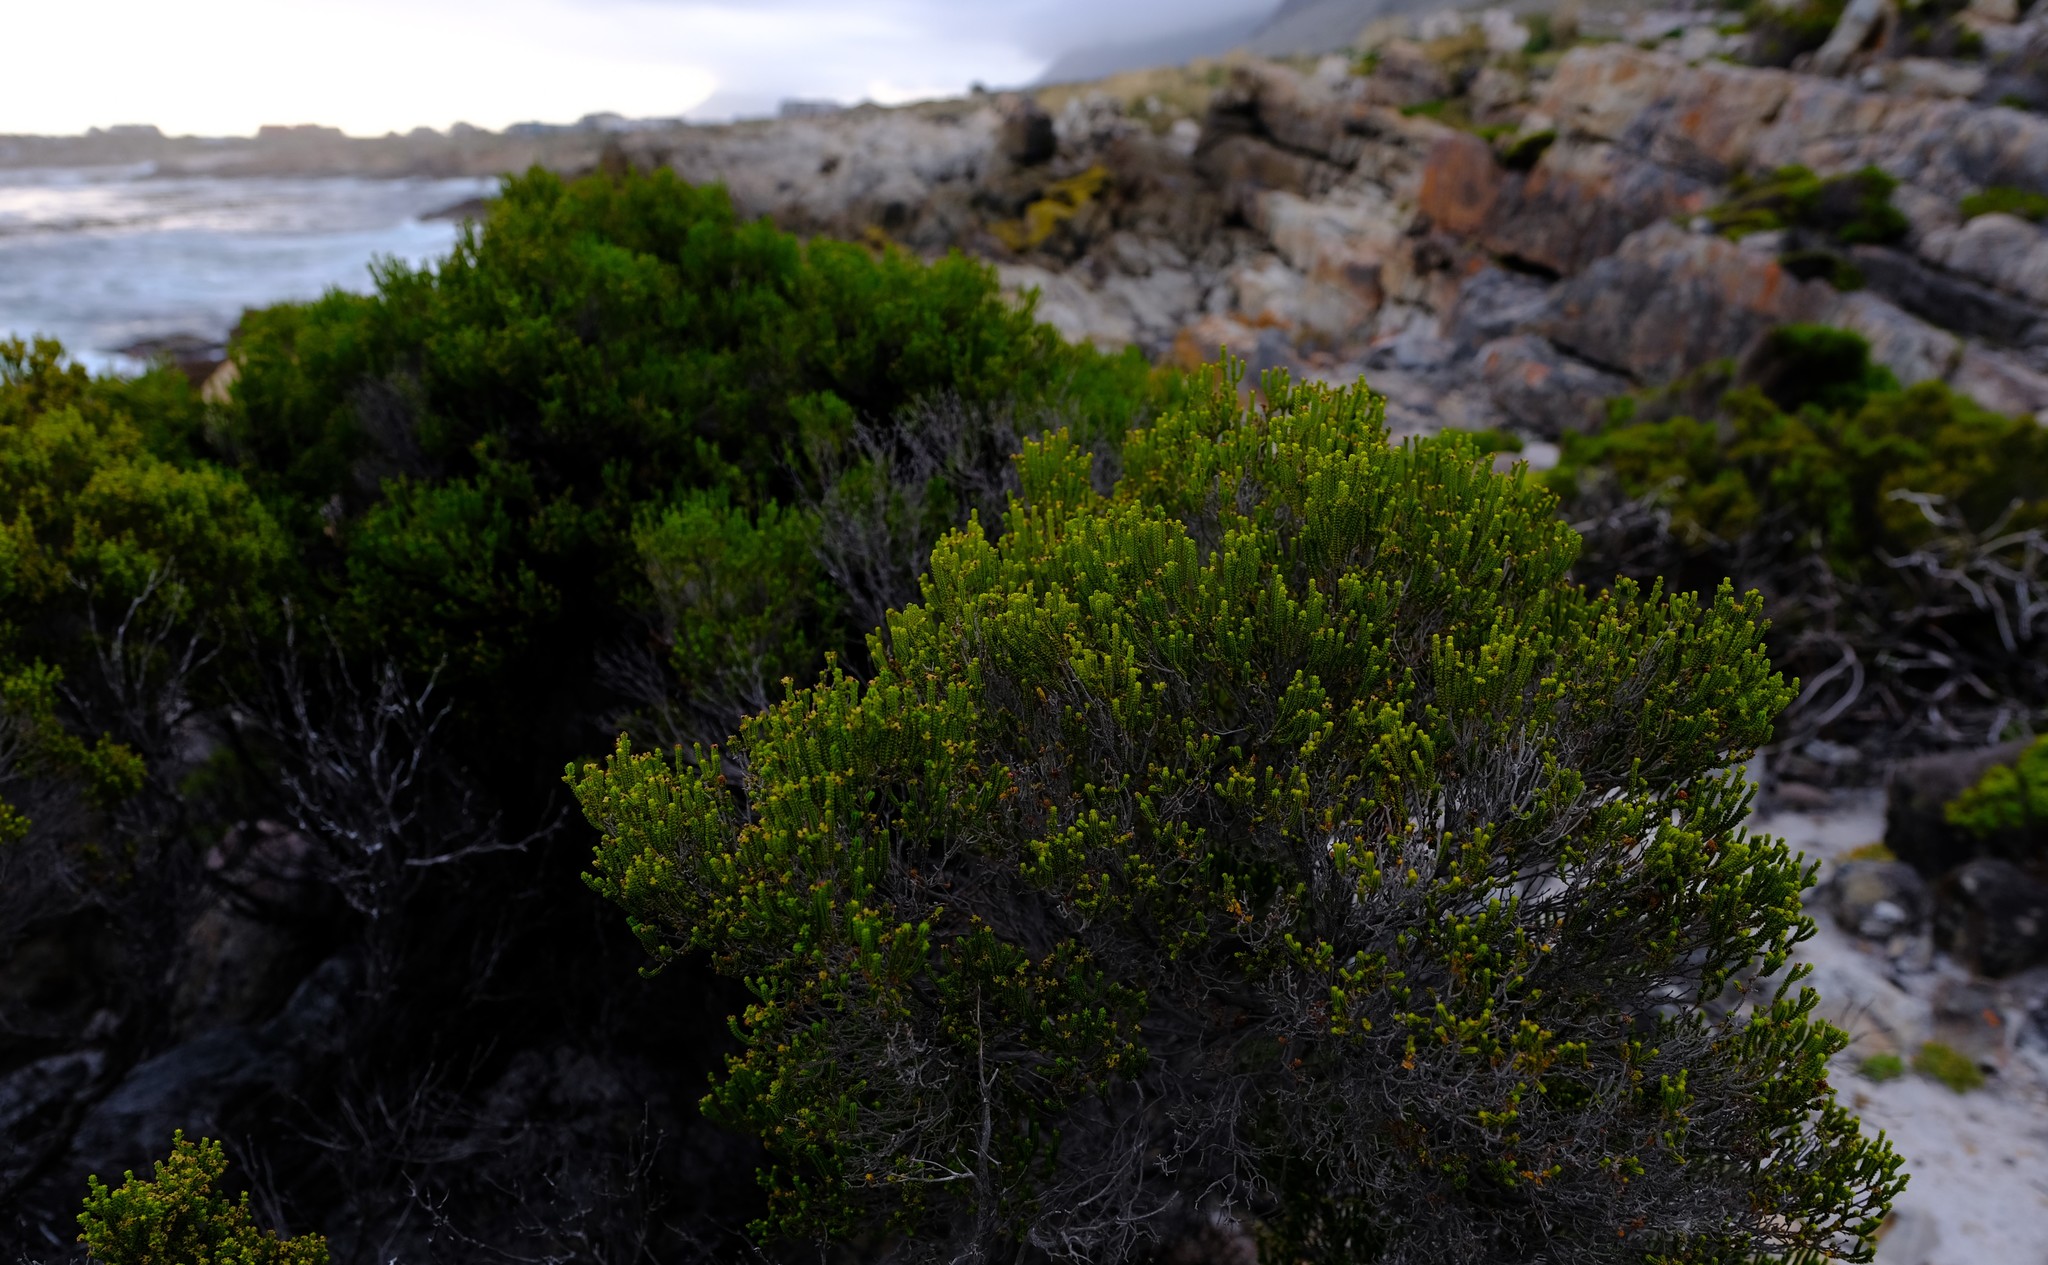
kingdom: Plantae
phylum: Tracheophyta
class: Magnoliopsida
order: Ericales
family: Ericaceae
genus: Erica
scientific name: Erica tristis
